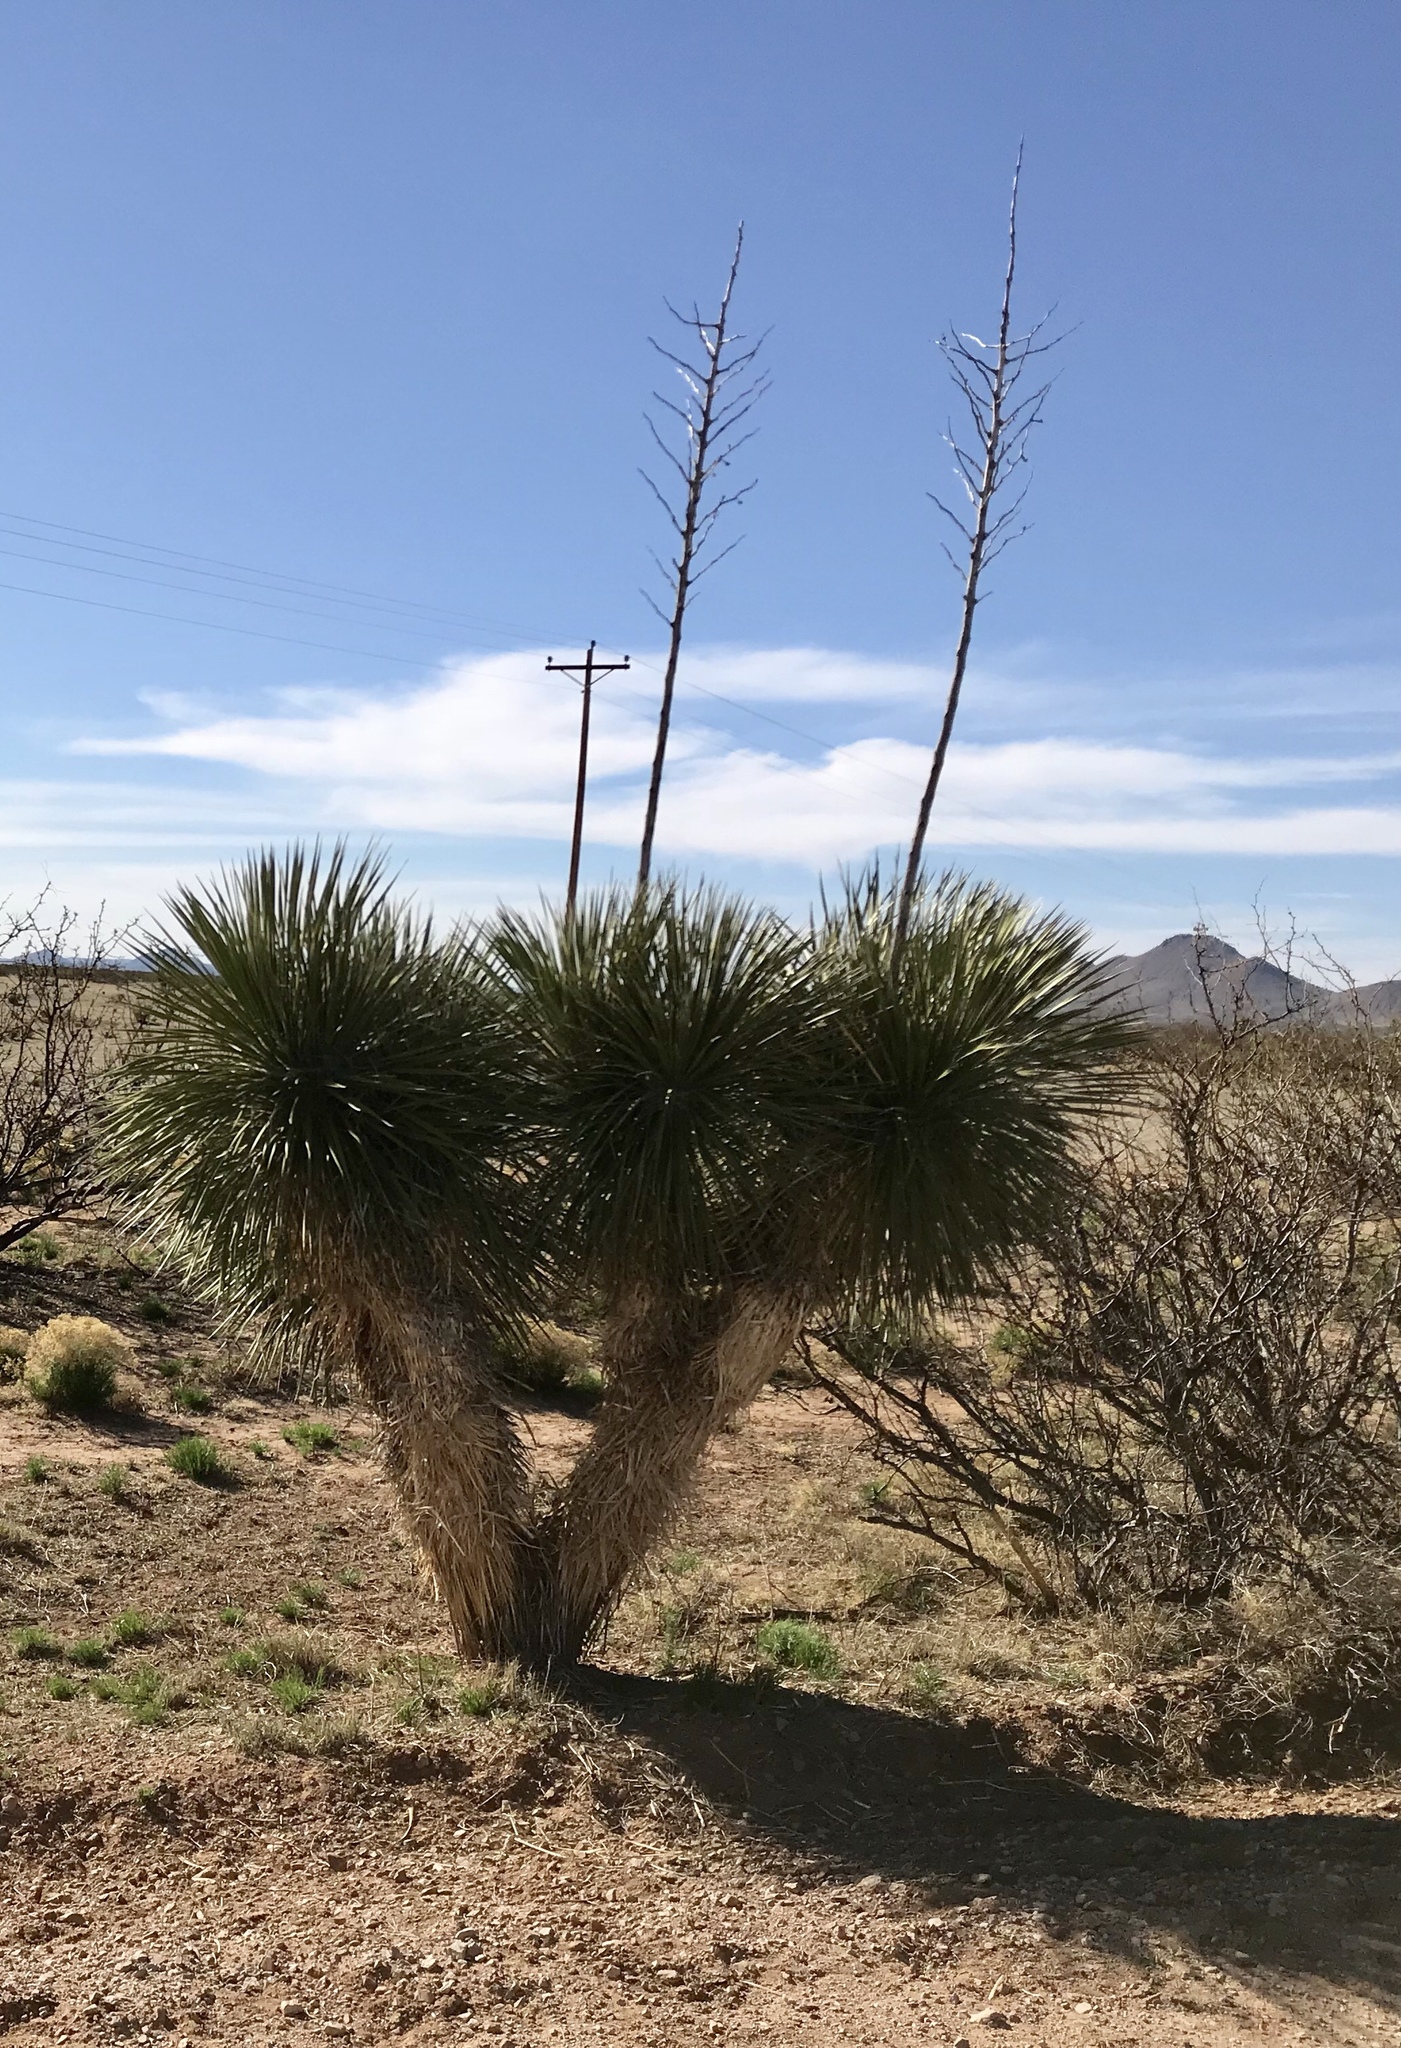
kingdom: Plantae
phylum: Tracheophyta
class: Liliopsida
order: Asparagales
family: Asparagaceae
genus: Yucca
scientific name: Yucca elata
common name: Palmella
